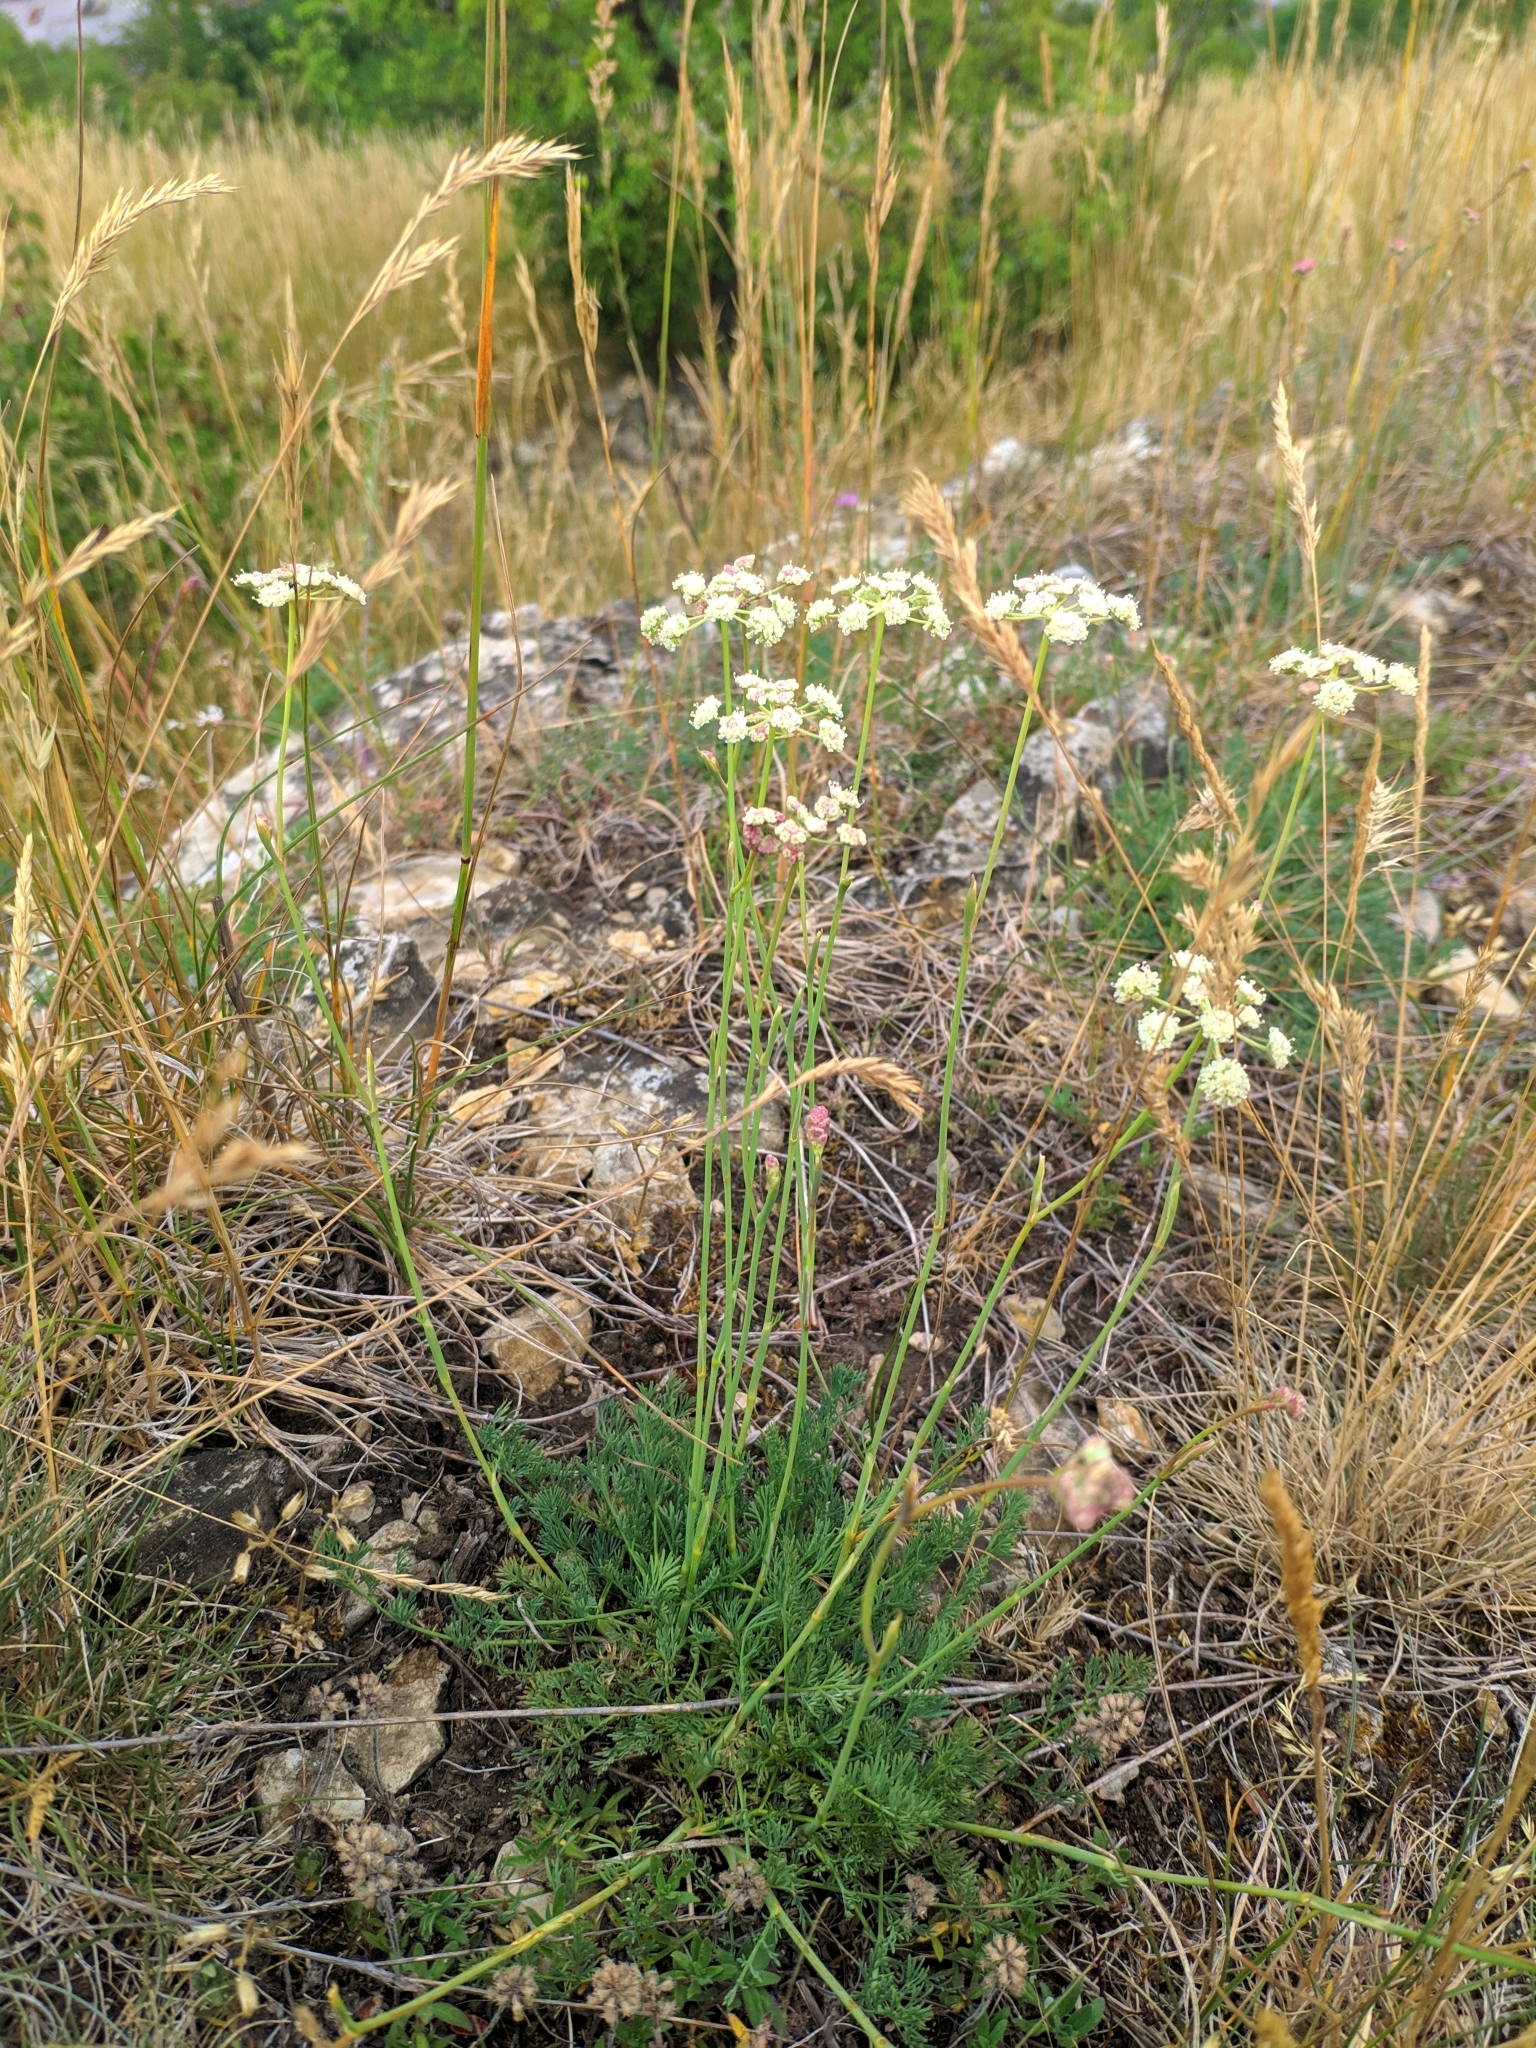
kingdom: Plantae
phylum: Tracheophyta
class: Magnoliopsida
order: Apiales
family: Apiaceae
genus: Hippomarathrum
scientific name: Hippomarathrum
